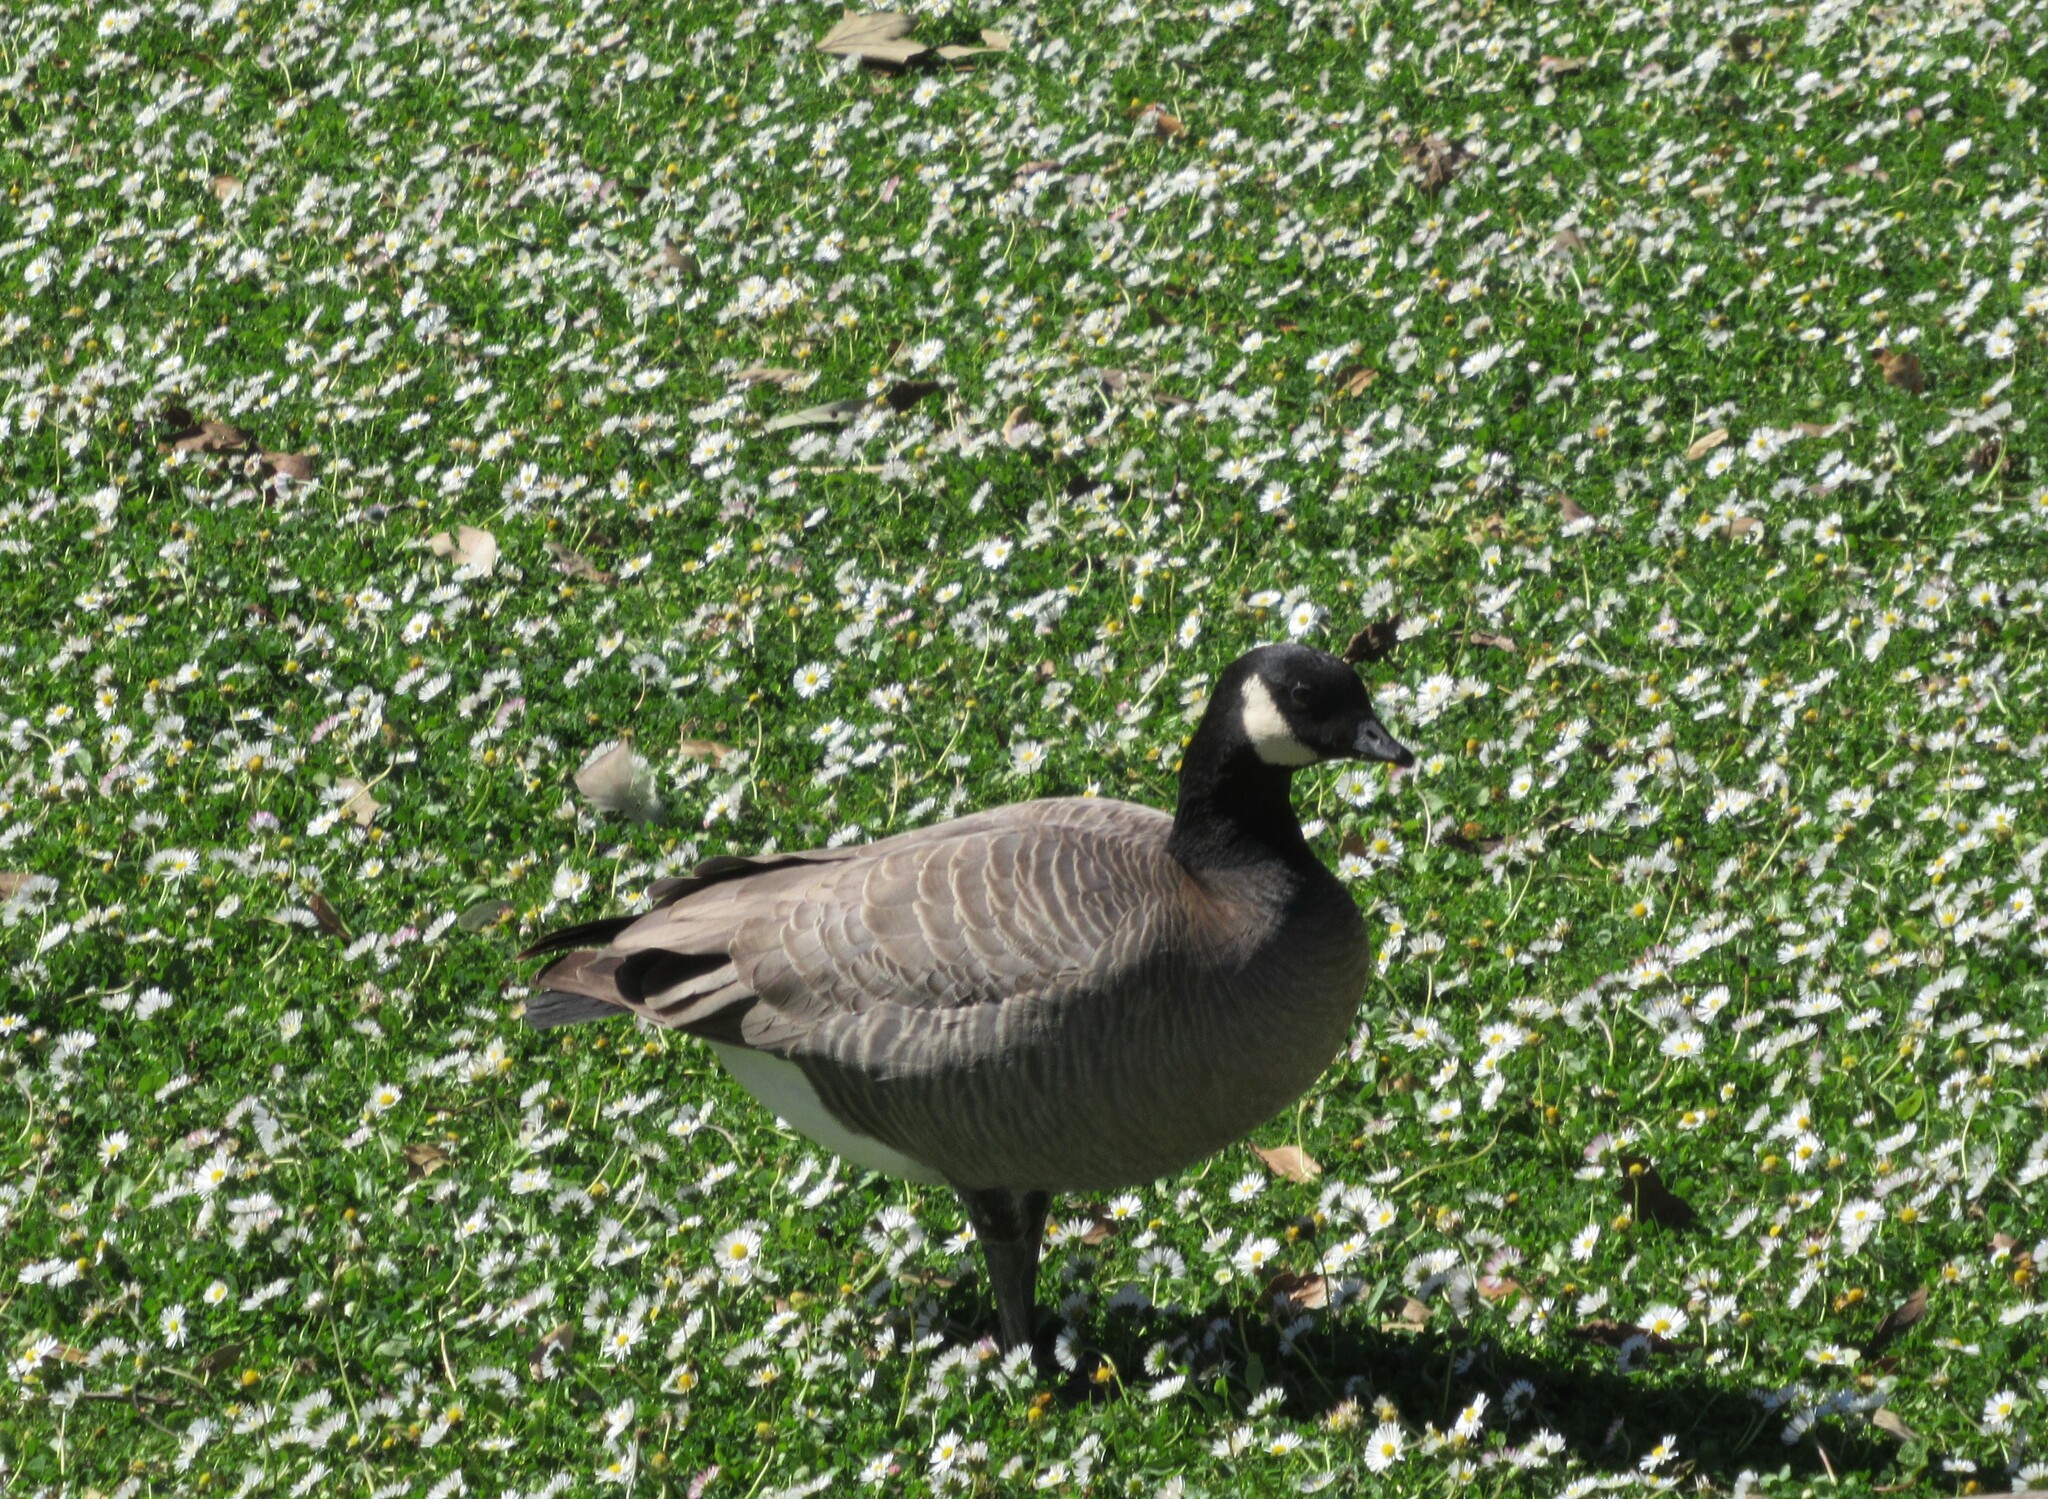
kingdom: Animalia
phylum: Chordata
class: Aves
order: Anseriformes
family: Anatidae
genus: Branta
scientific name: Branta hutchinsii
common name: Cackling goose
